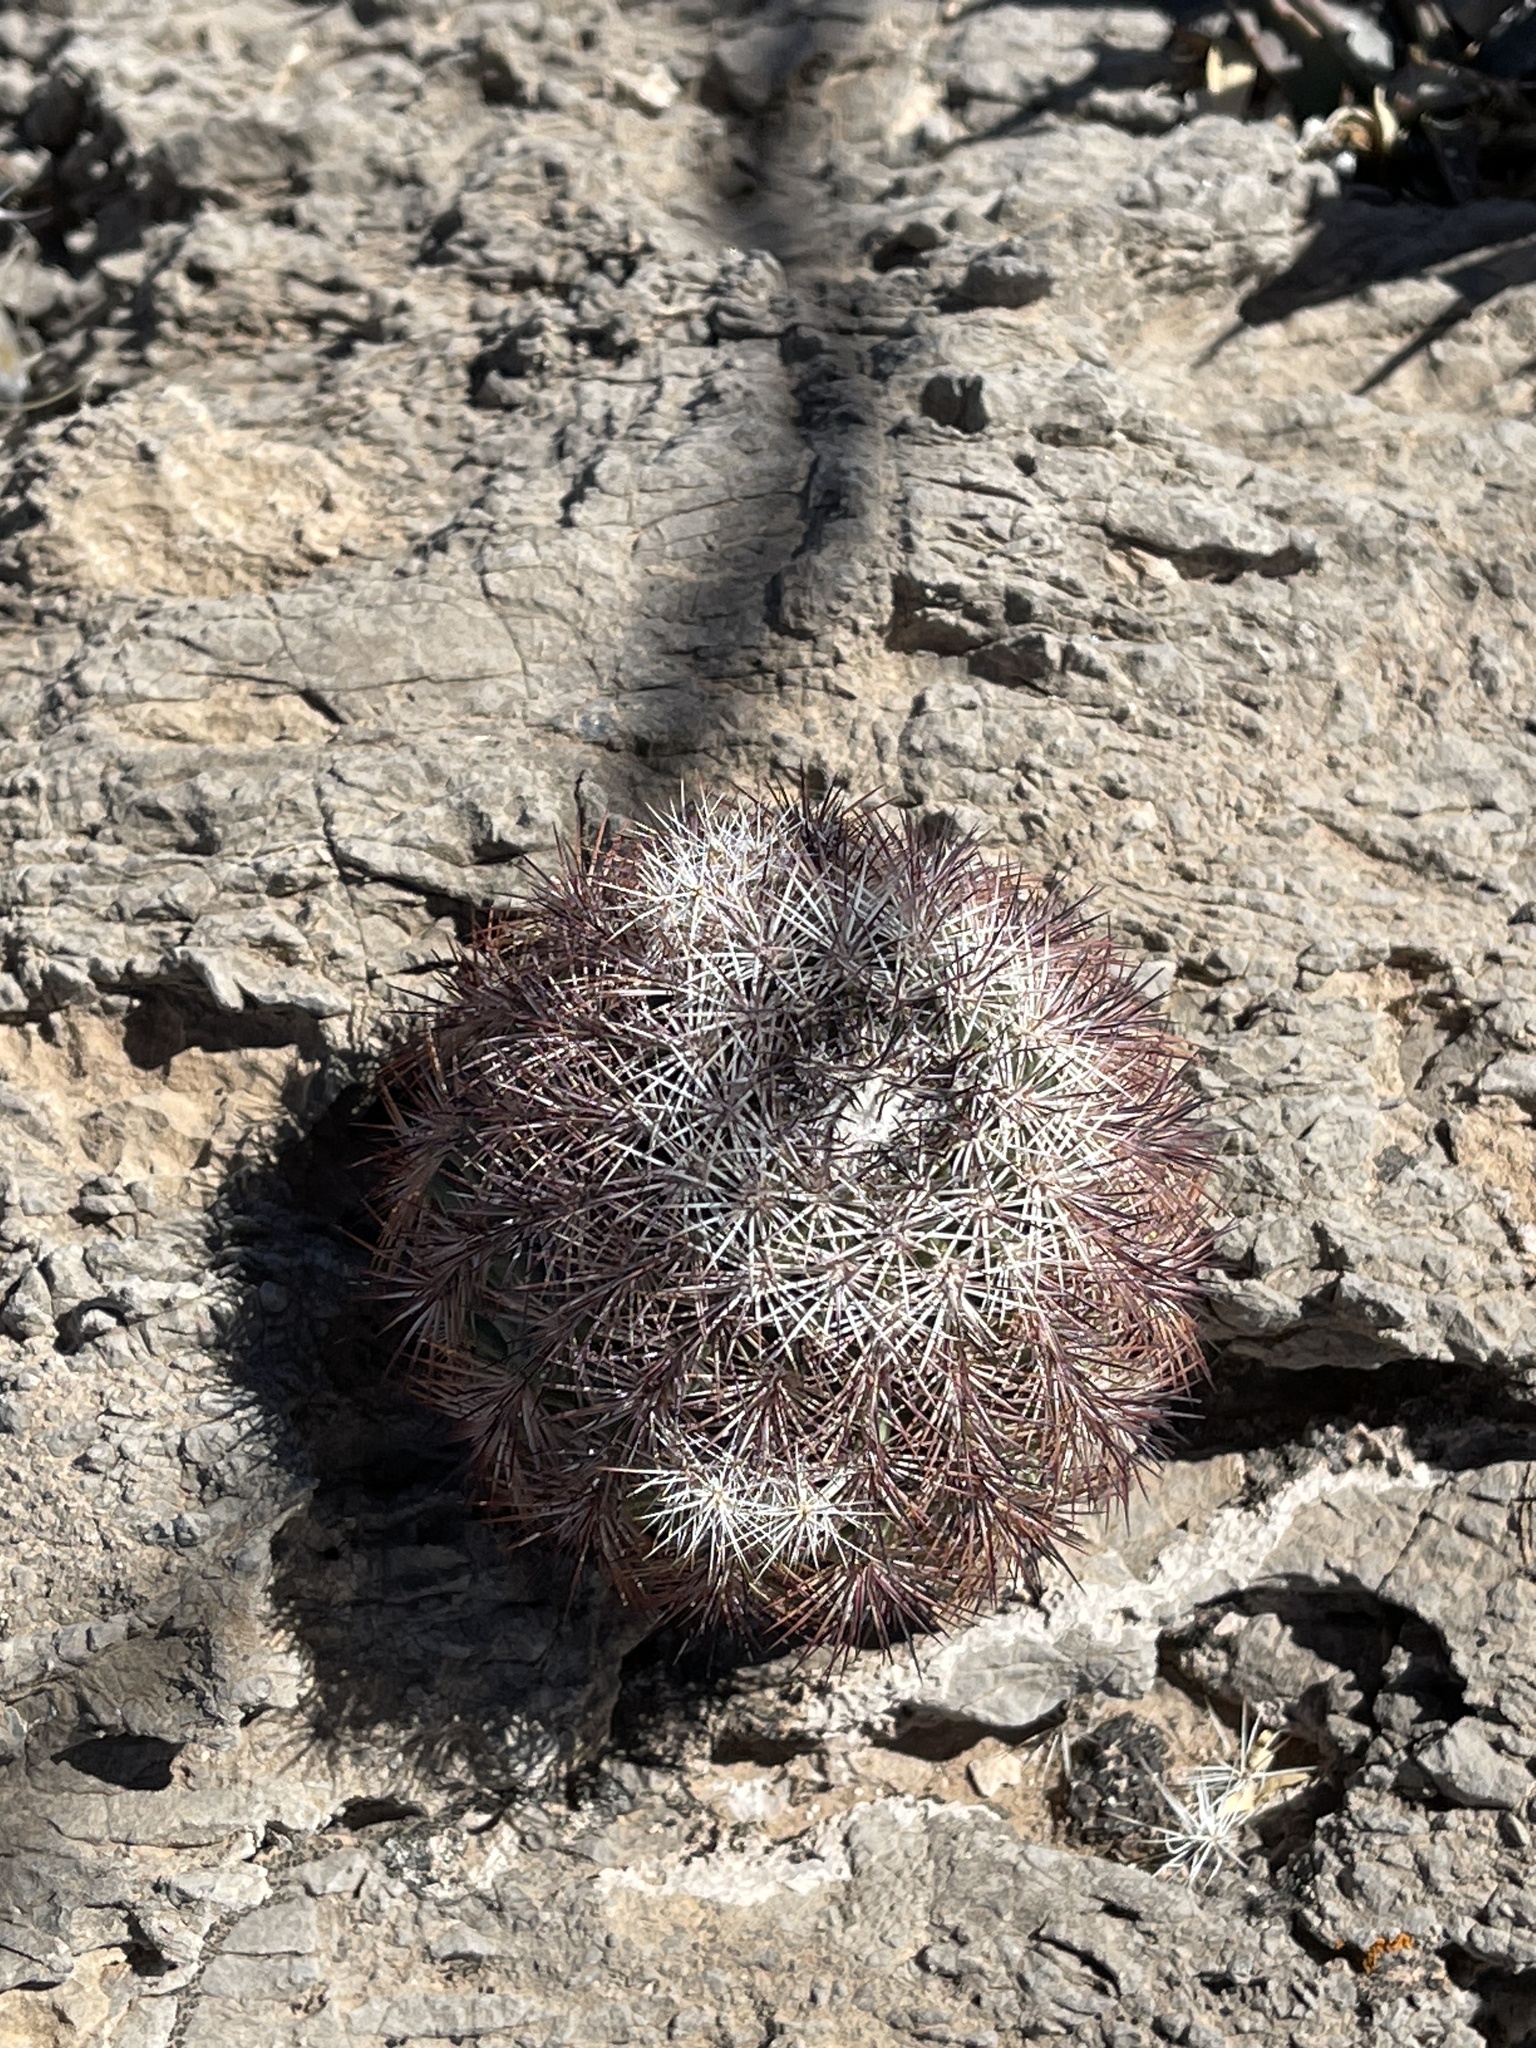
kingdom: Plantae
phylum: Tracheophyta
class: Magnoliopsida
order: Caryophyllales
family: Cactaceae
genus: Echinocereus
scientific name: Echinocereus dasyacanthus
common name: Spiny hedgehog cactus
